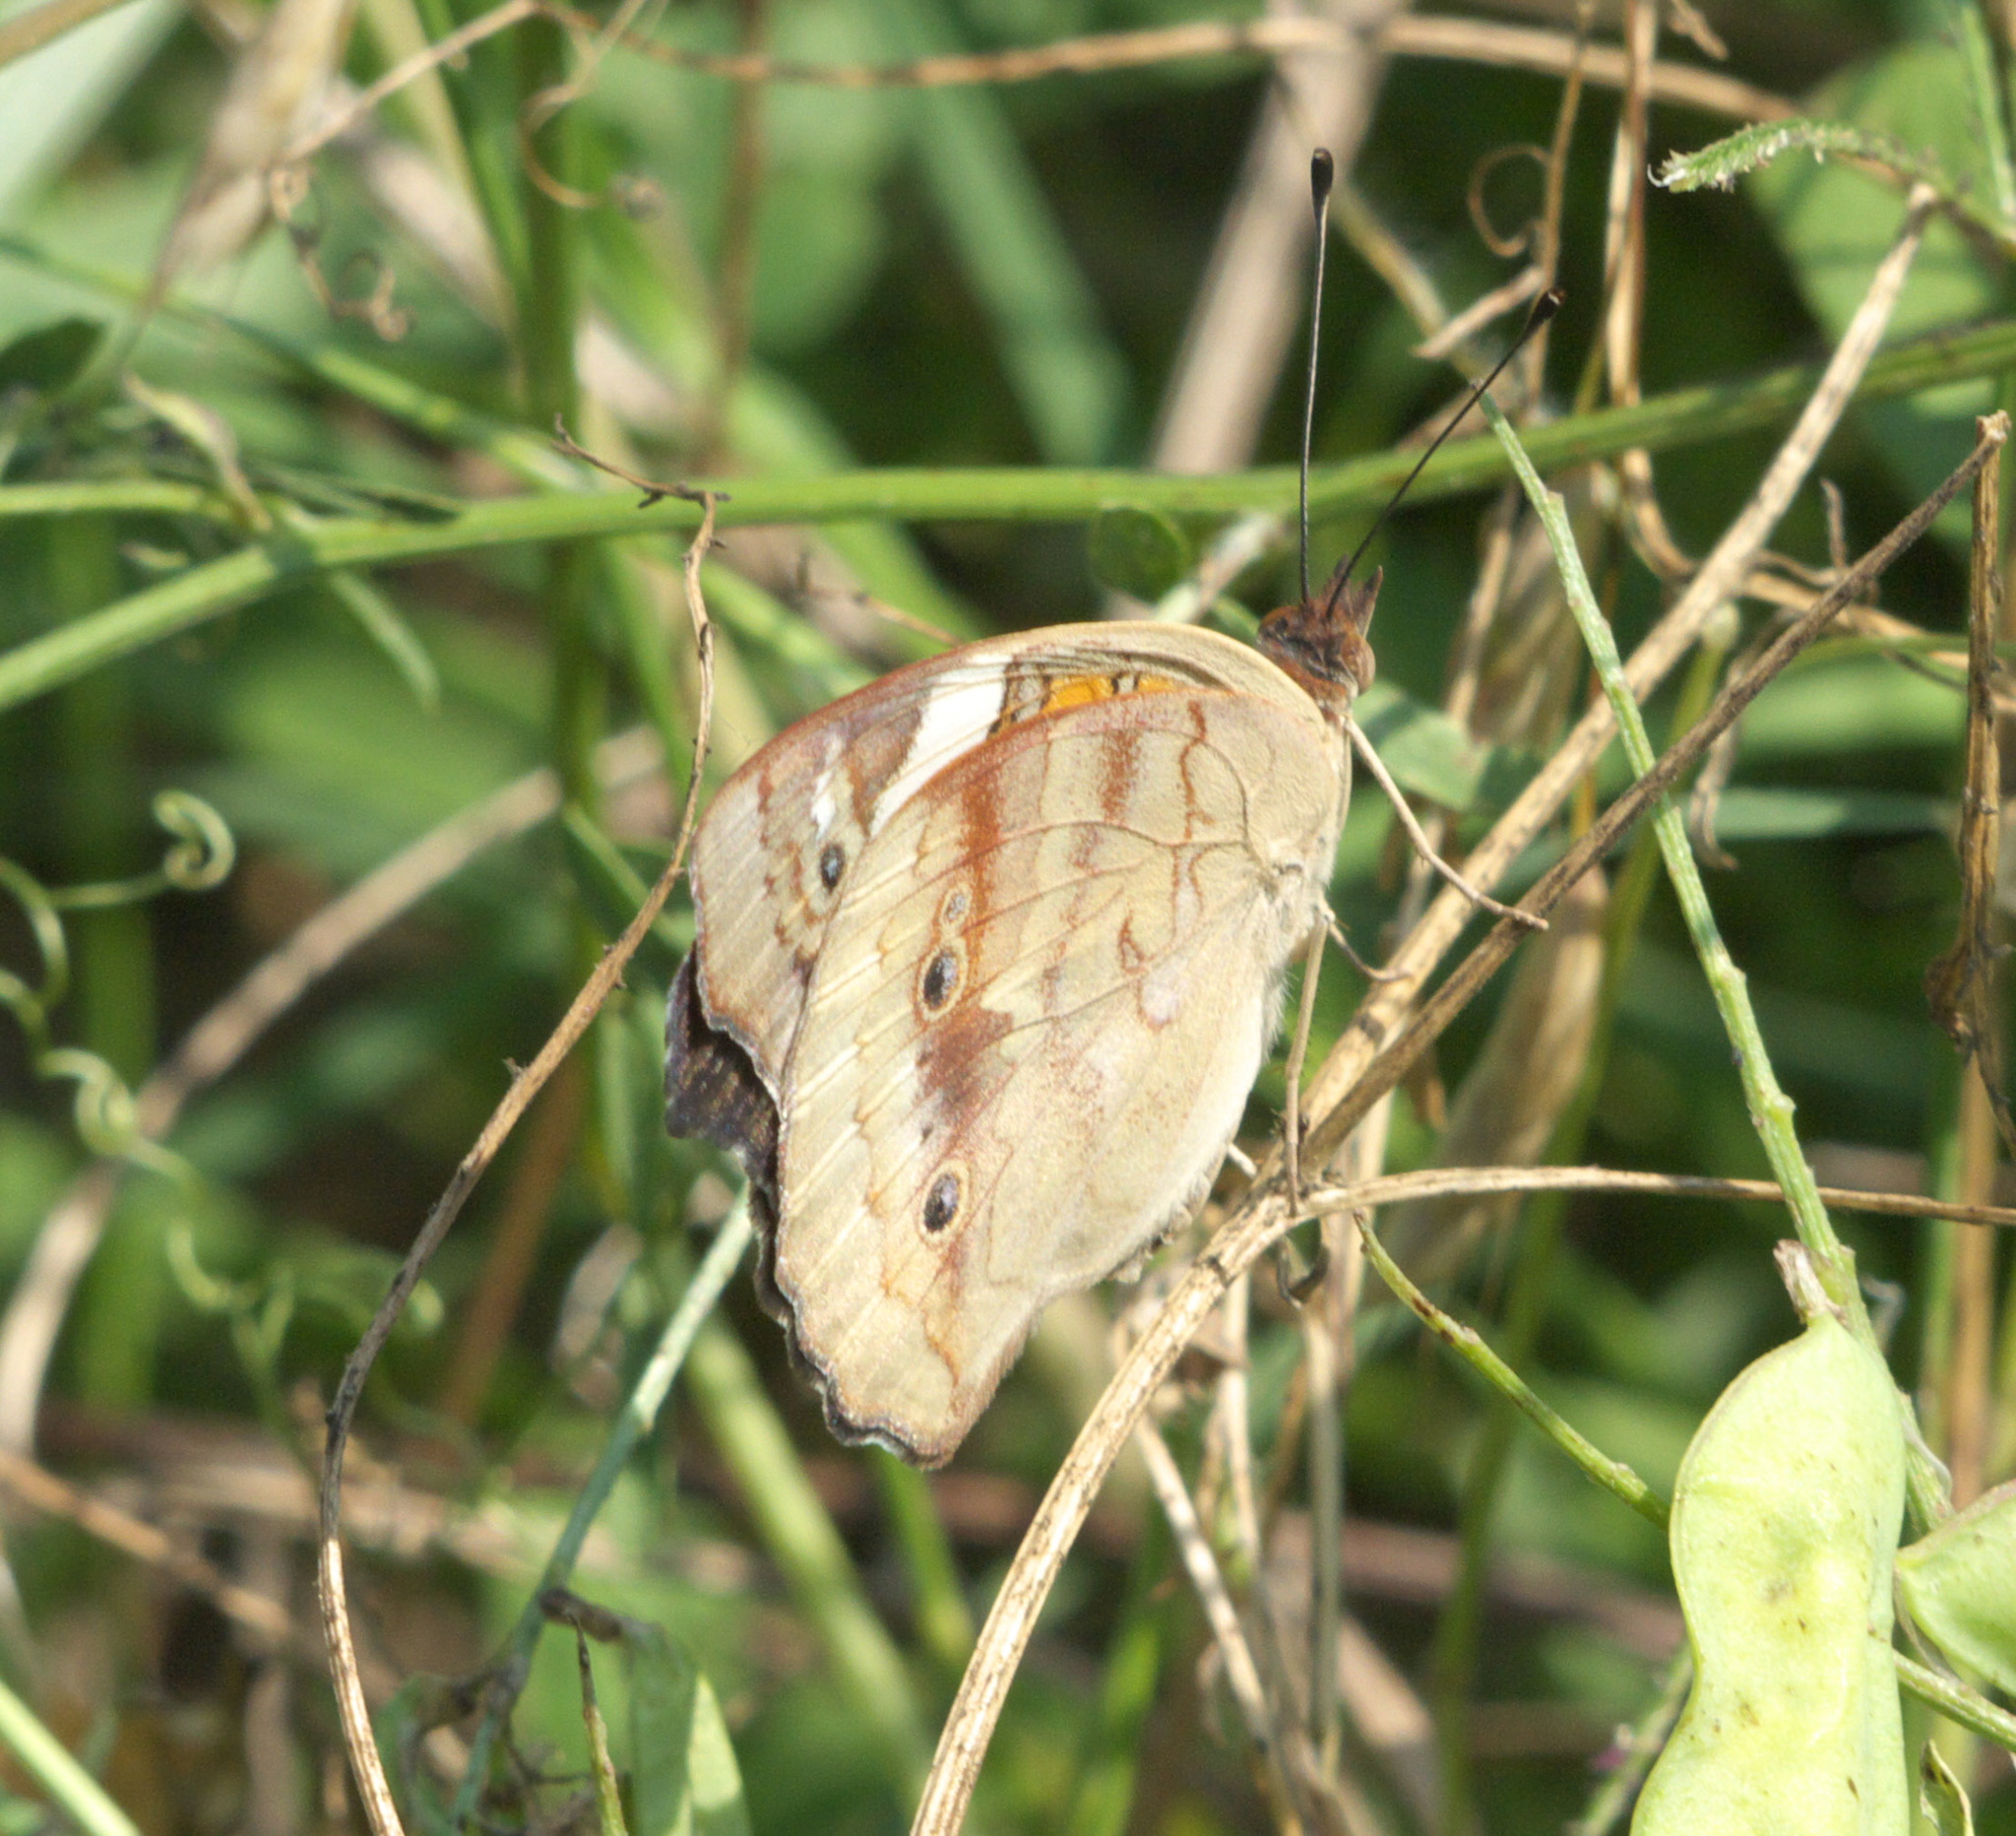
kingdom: Animalia
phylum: Arthropoda
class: Insecta
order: Lepidoptera
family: Nymphalidae
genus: Junonia
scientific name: Junonia coenia
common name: Common buckeye
